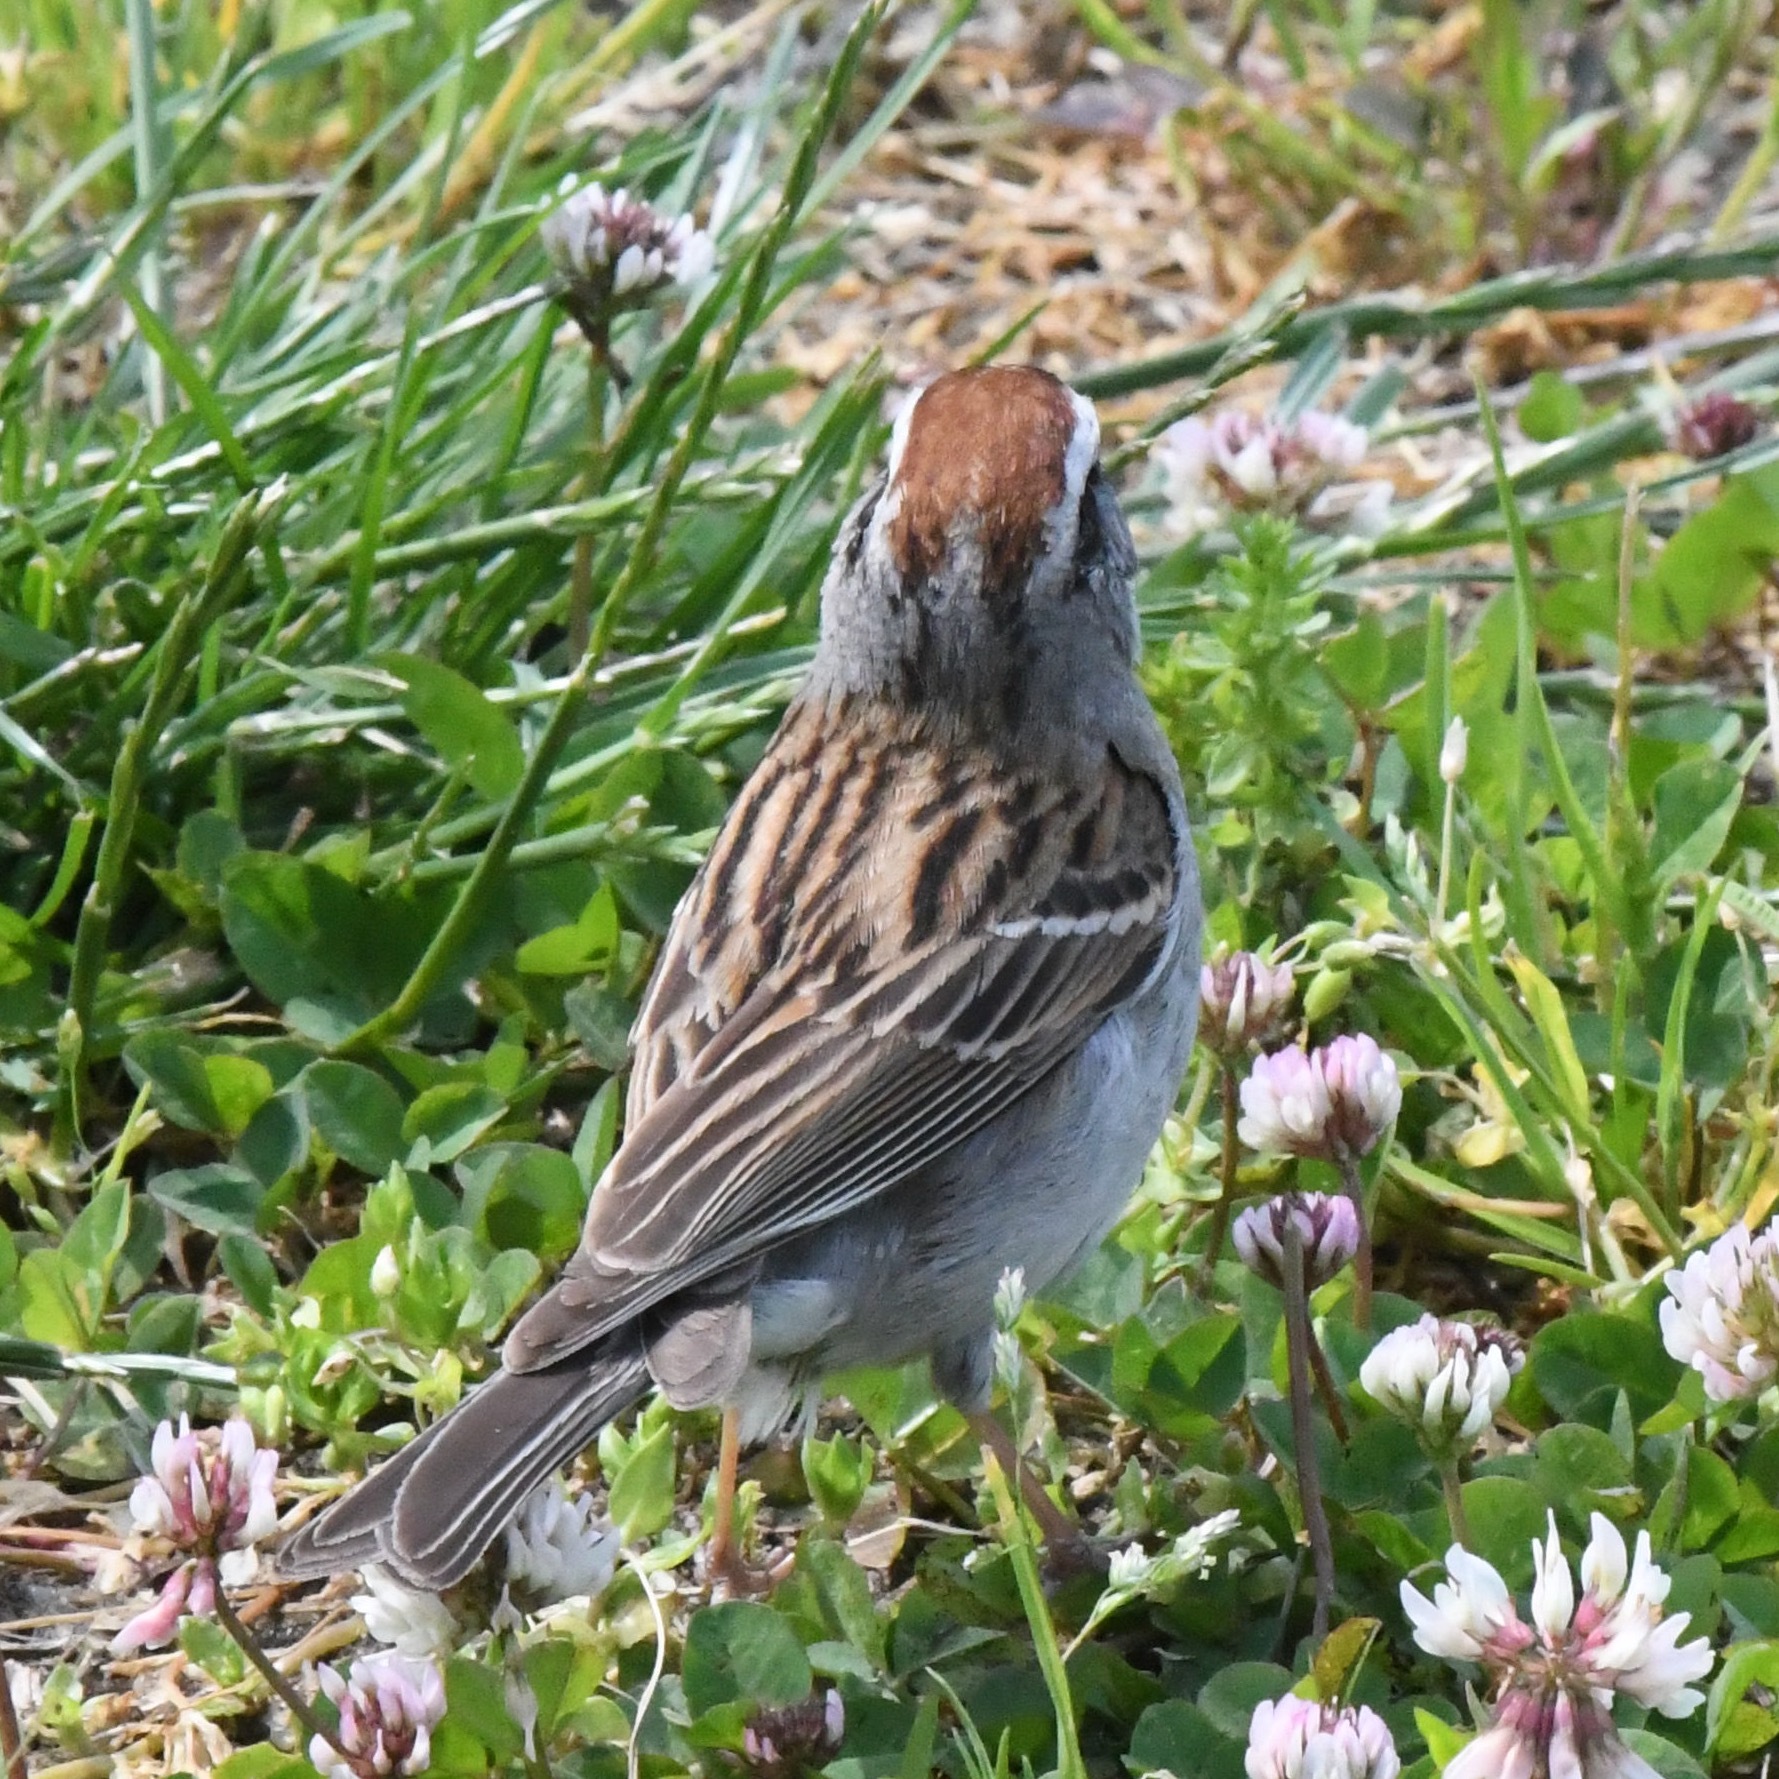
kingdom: Animalia
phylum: Chordata
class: Aves
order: Passeriformes
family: Passerellidae
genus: Spizella
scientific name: Spizella passerina
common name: Chipping sparrow
